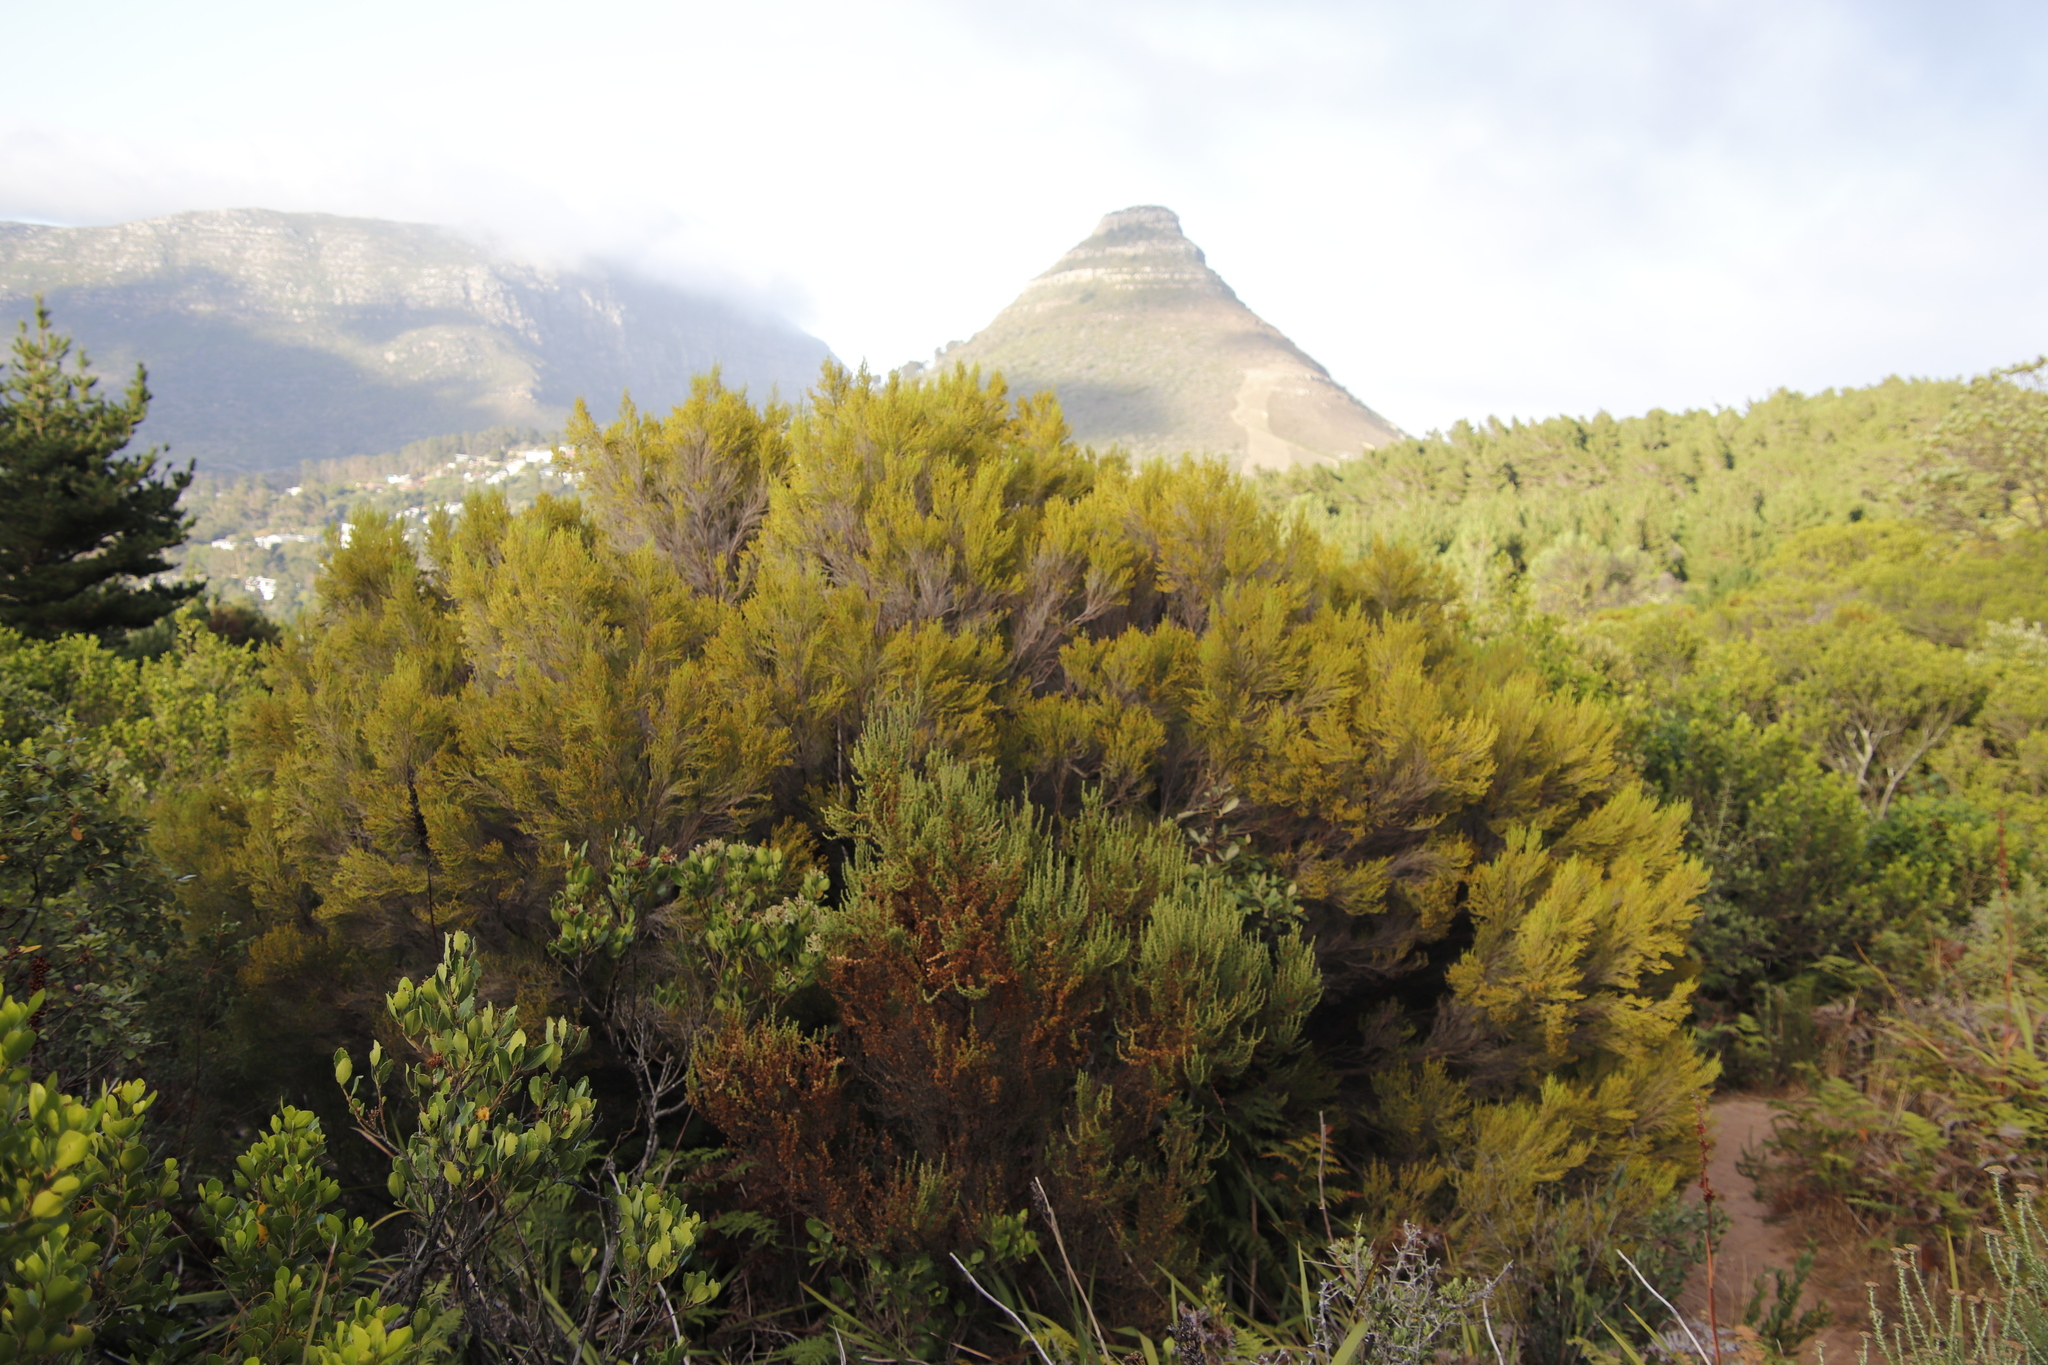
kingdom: Plantae
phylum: Tracheophyta
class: Magnoliopsida
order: Ericales
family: Ericaceae
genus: Erica
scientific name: Erica tristis
